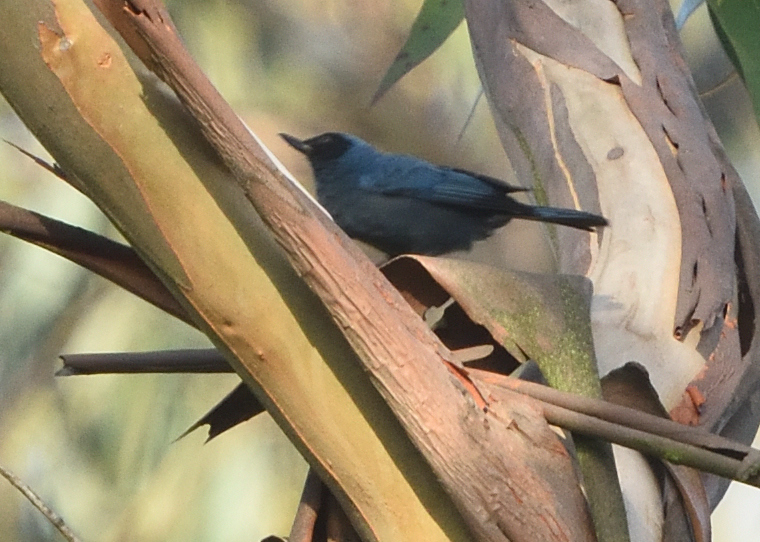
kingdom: Animalia
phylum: Chordata
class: Aves
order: Passeriformes
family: Thraupidae
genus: Diglossa
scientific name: Diglossa cyanea
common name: Masked flowerpiercer
